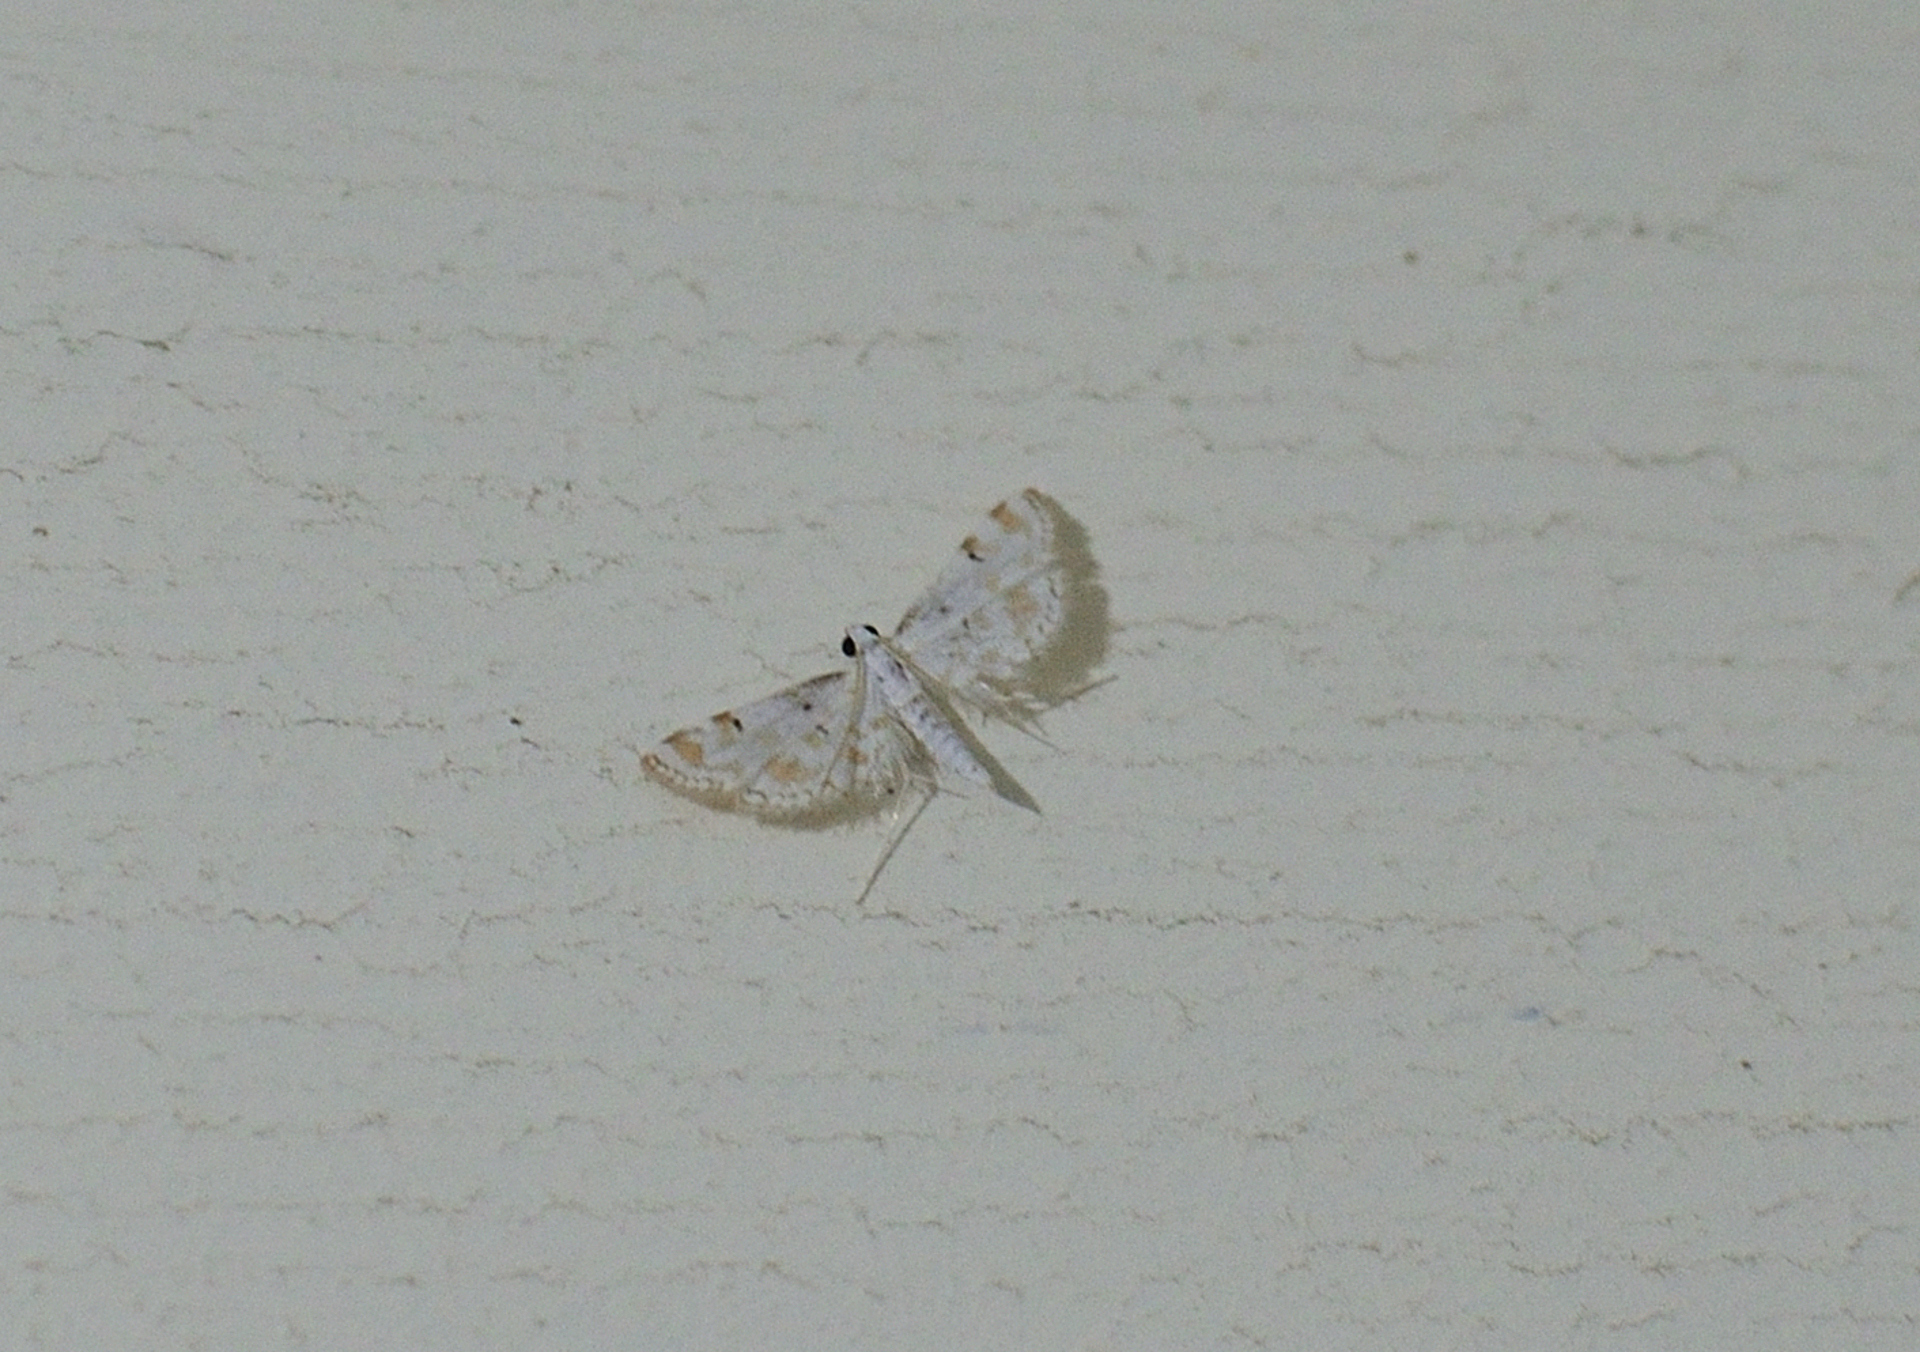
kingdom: Animalia
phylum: Arthropoda
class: Insecta
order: Lepidoptera
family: Crambidae
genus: Parapoynx
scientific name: Parapoynx stagnalis
